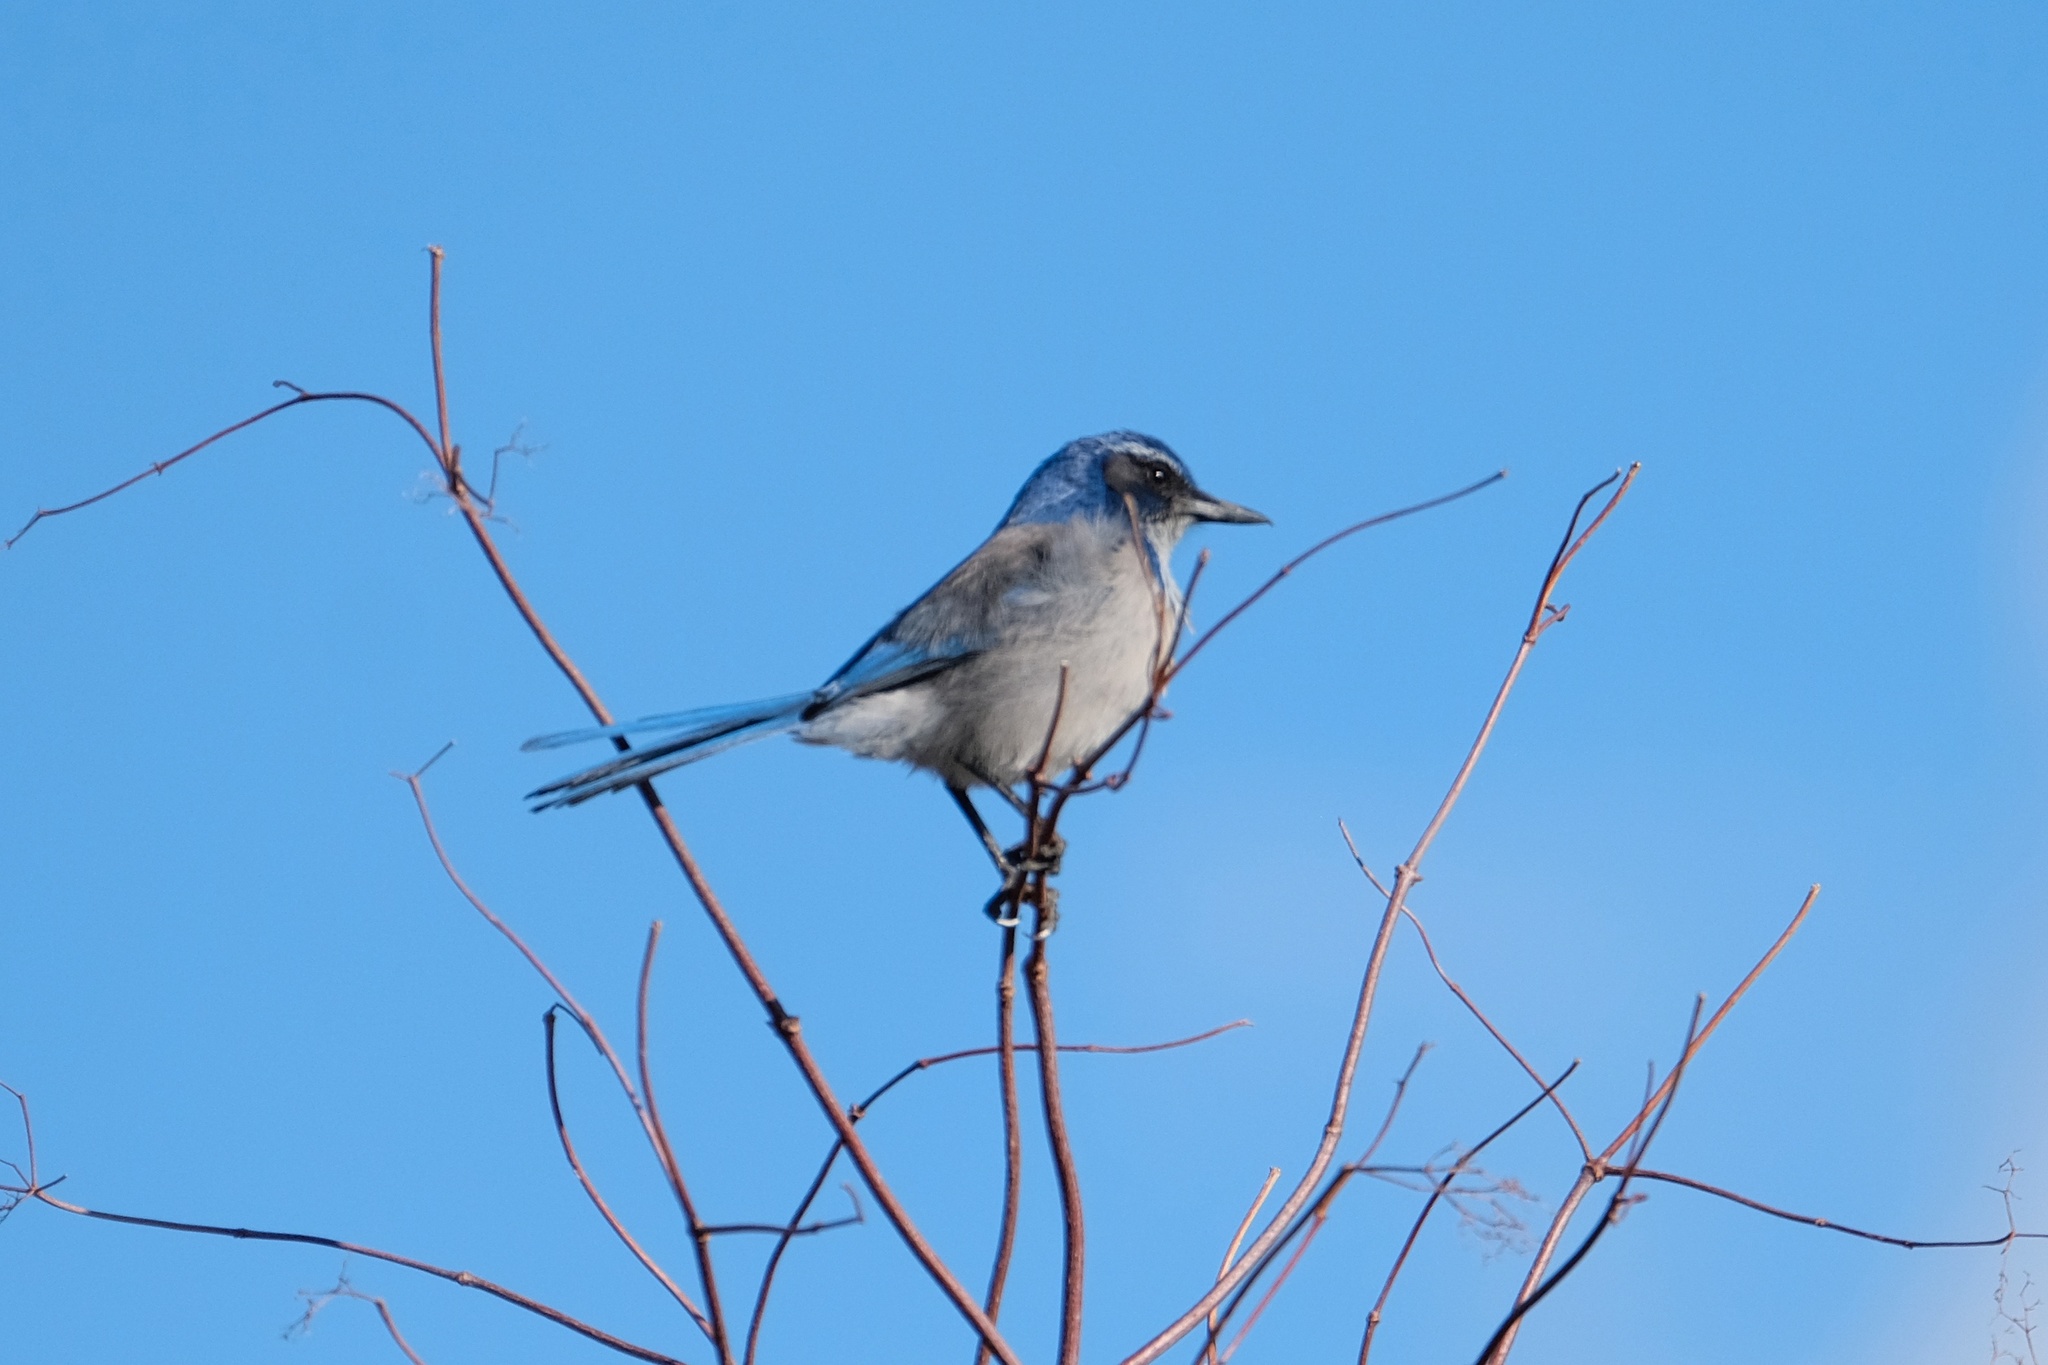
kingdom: Animalia
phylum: Chordata
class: Aves
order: Passeriformes
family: Corvidae
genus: Aphelocoma
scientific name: Aphelocoma californica
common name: California scrub-jay
